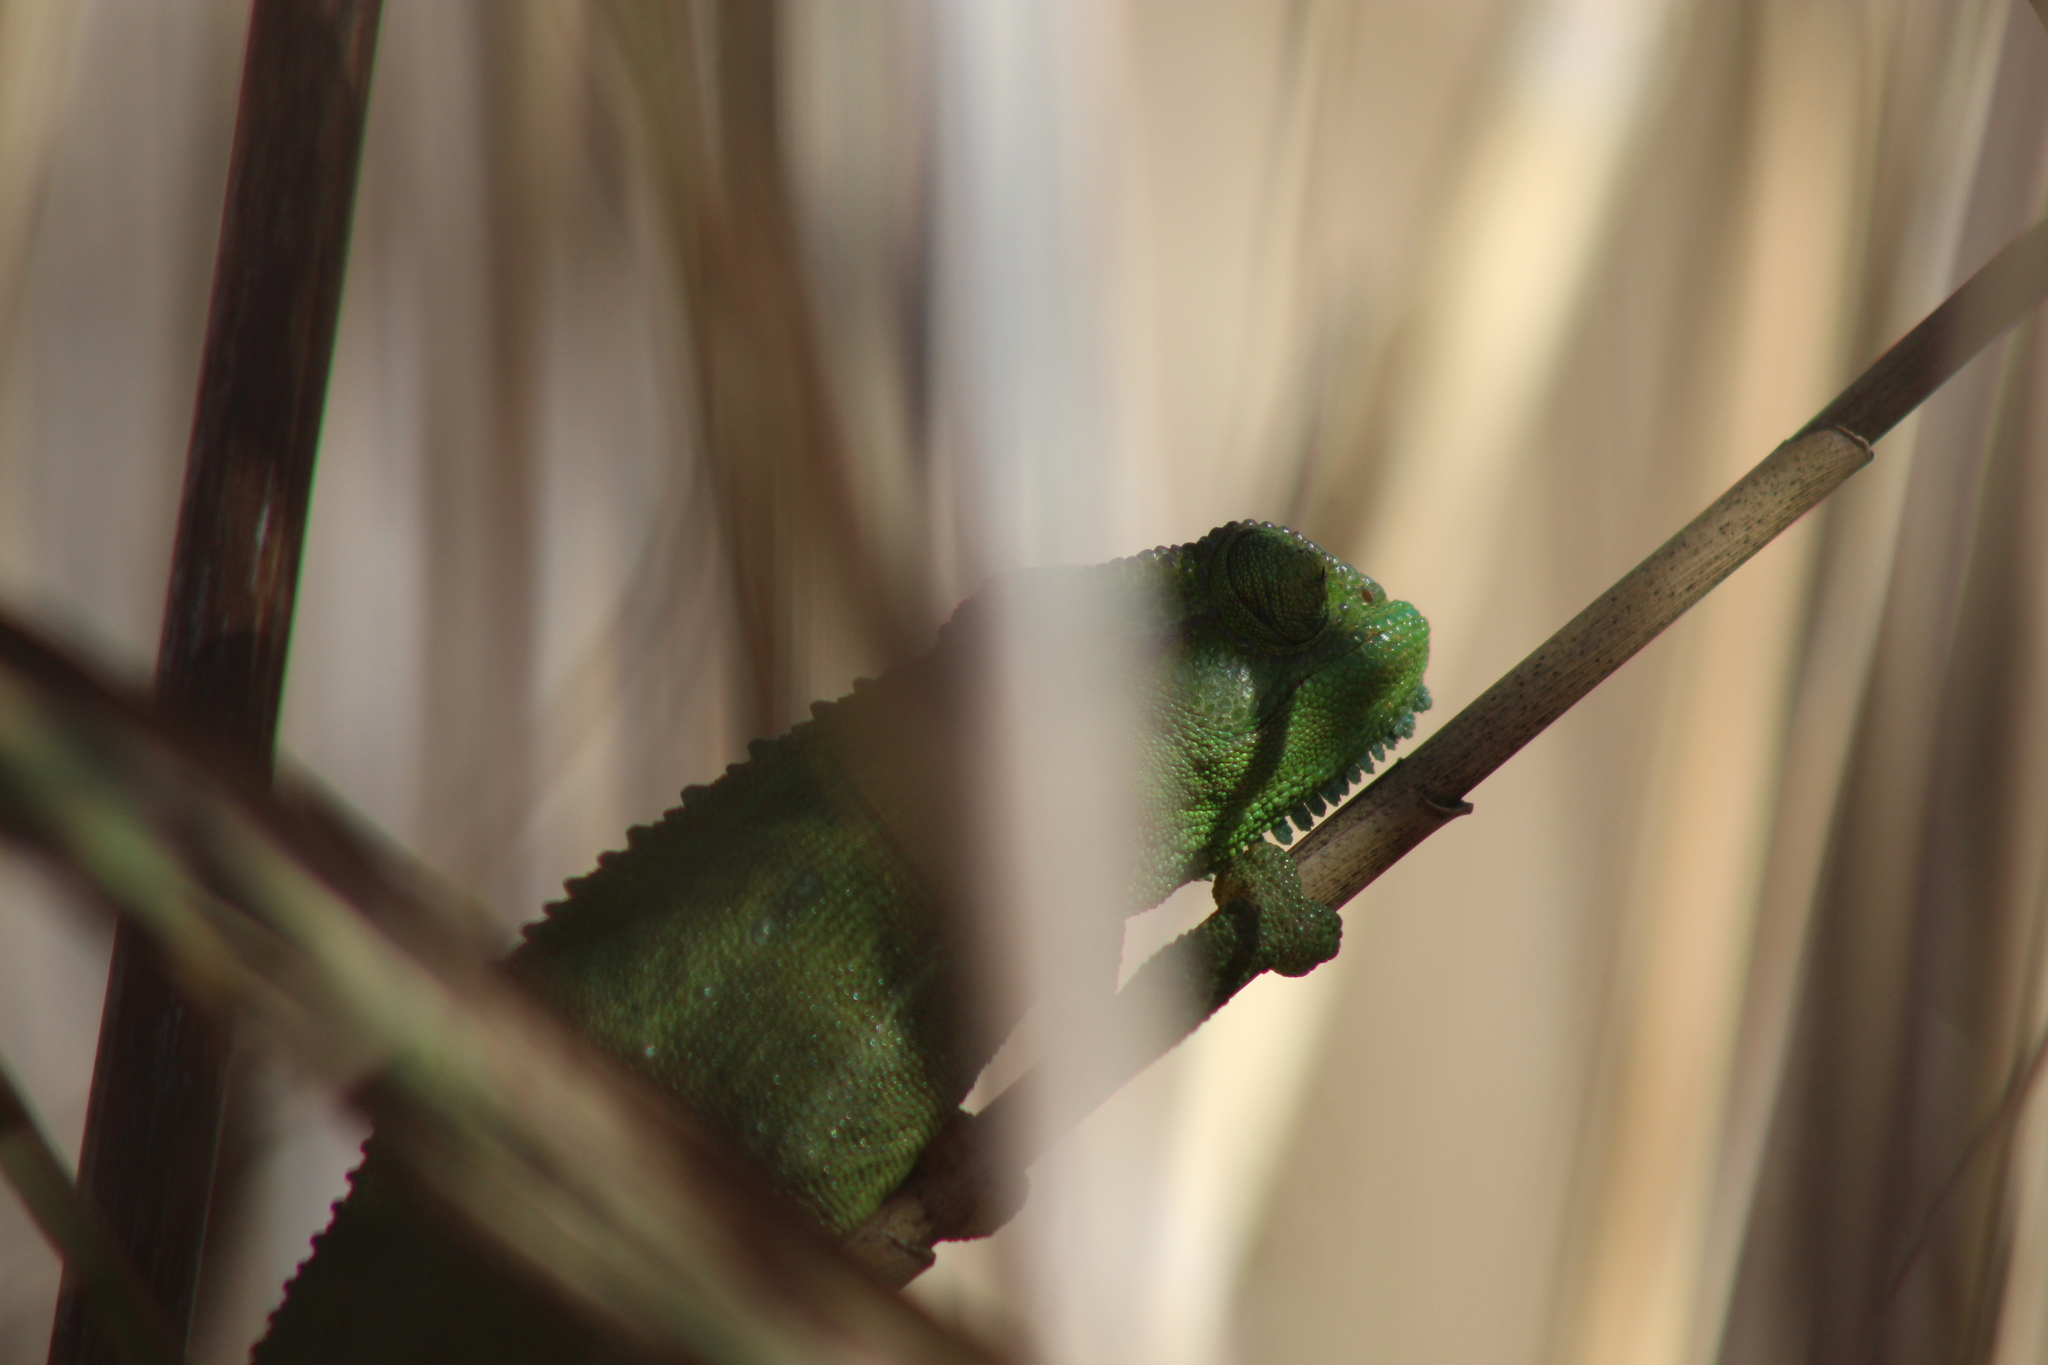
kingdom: Animalia
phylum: Chordata
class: Squamata
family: Chamaeleonidae
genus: Bradypodion
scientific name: Bradypodion pumilum
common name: Cape dwarf chameleon
